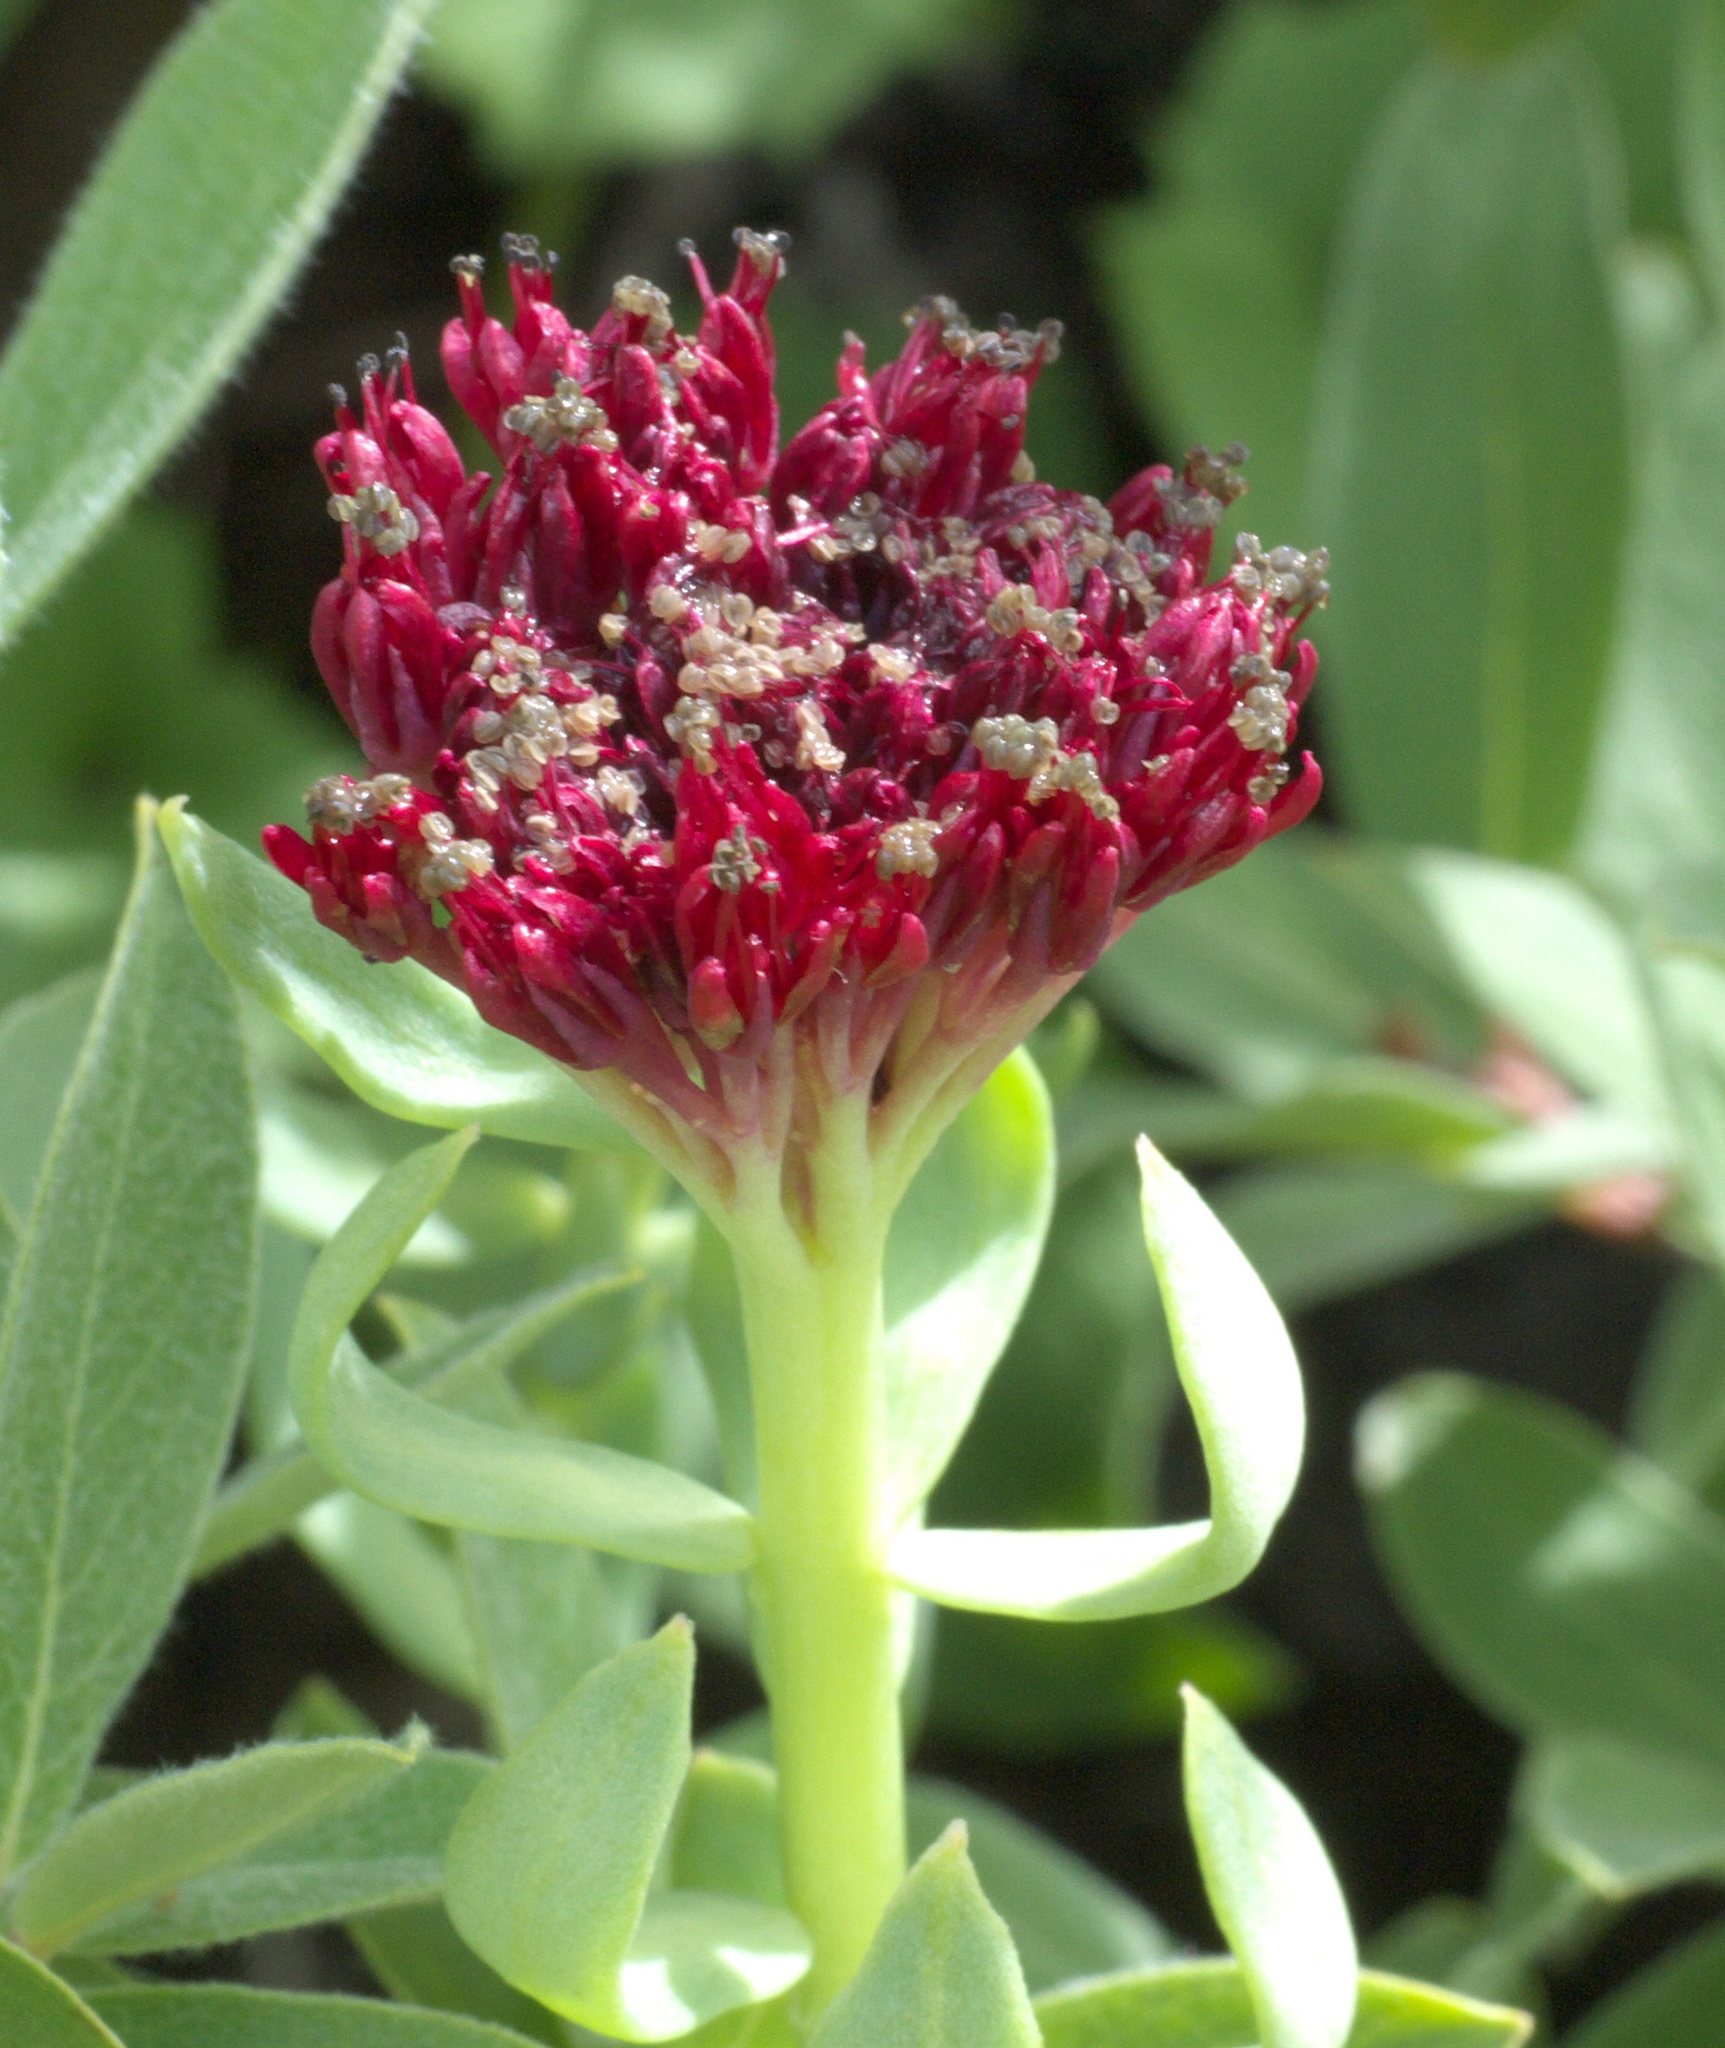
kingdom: Plantae
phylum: Tracheophyta
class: Magnoliopsida
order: Saxifragales
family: Crassulaceae
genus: Rhodiola
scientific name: Rhodiola integrifolia
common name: Western roseroot
